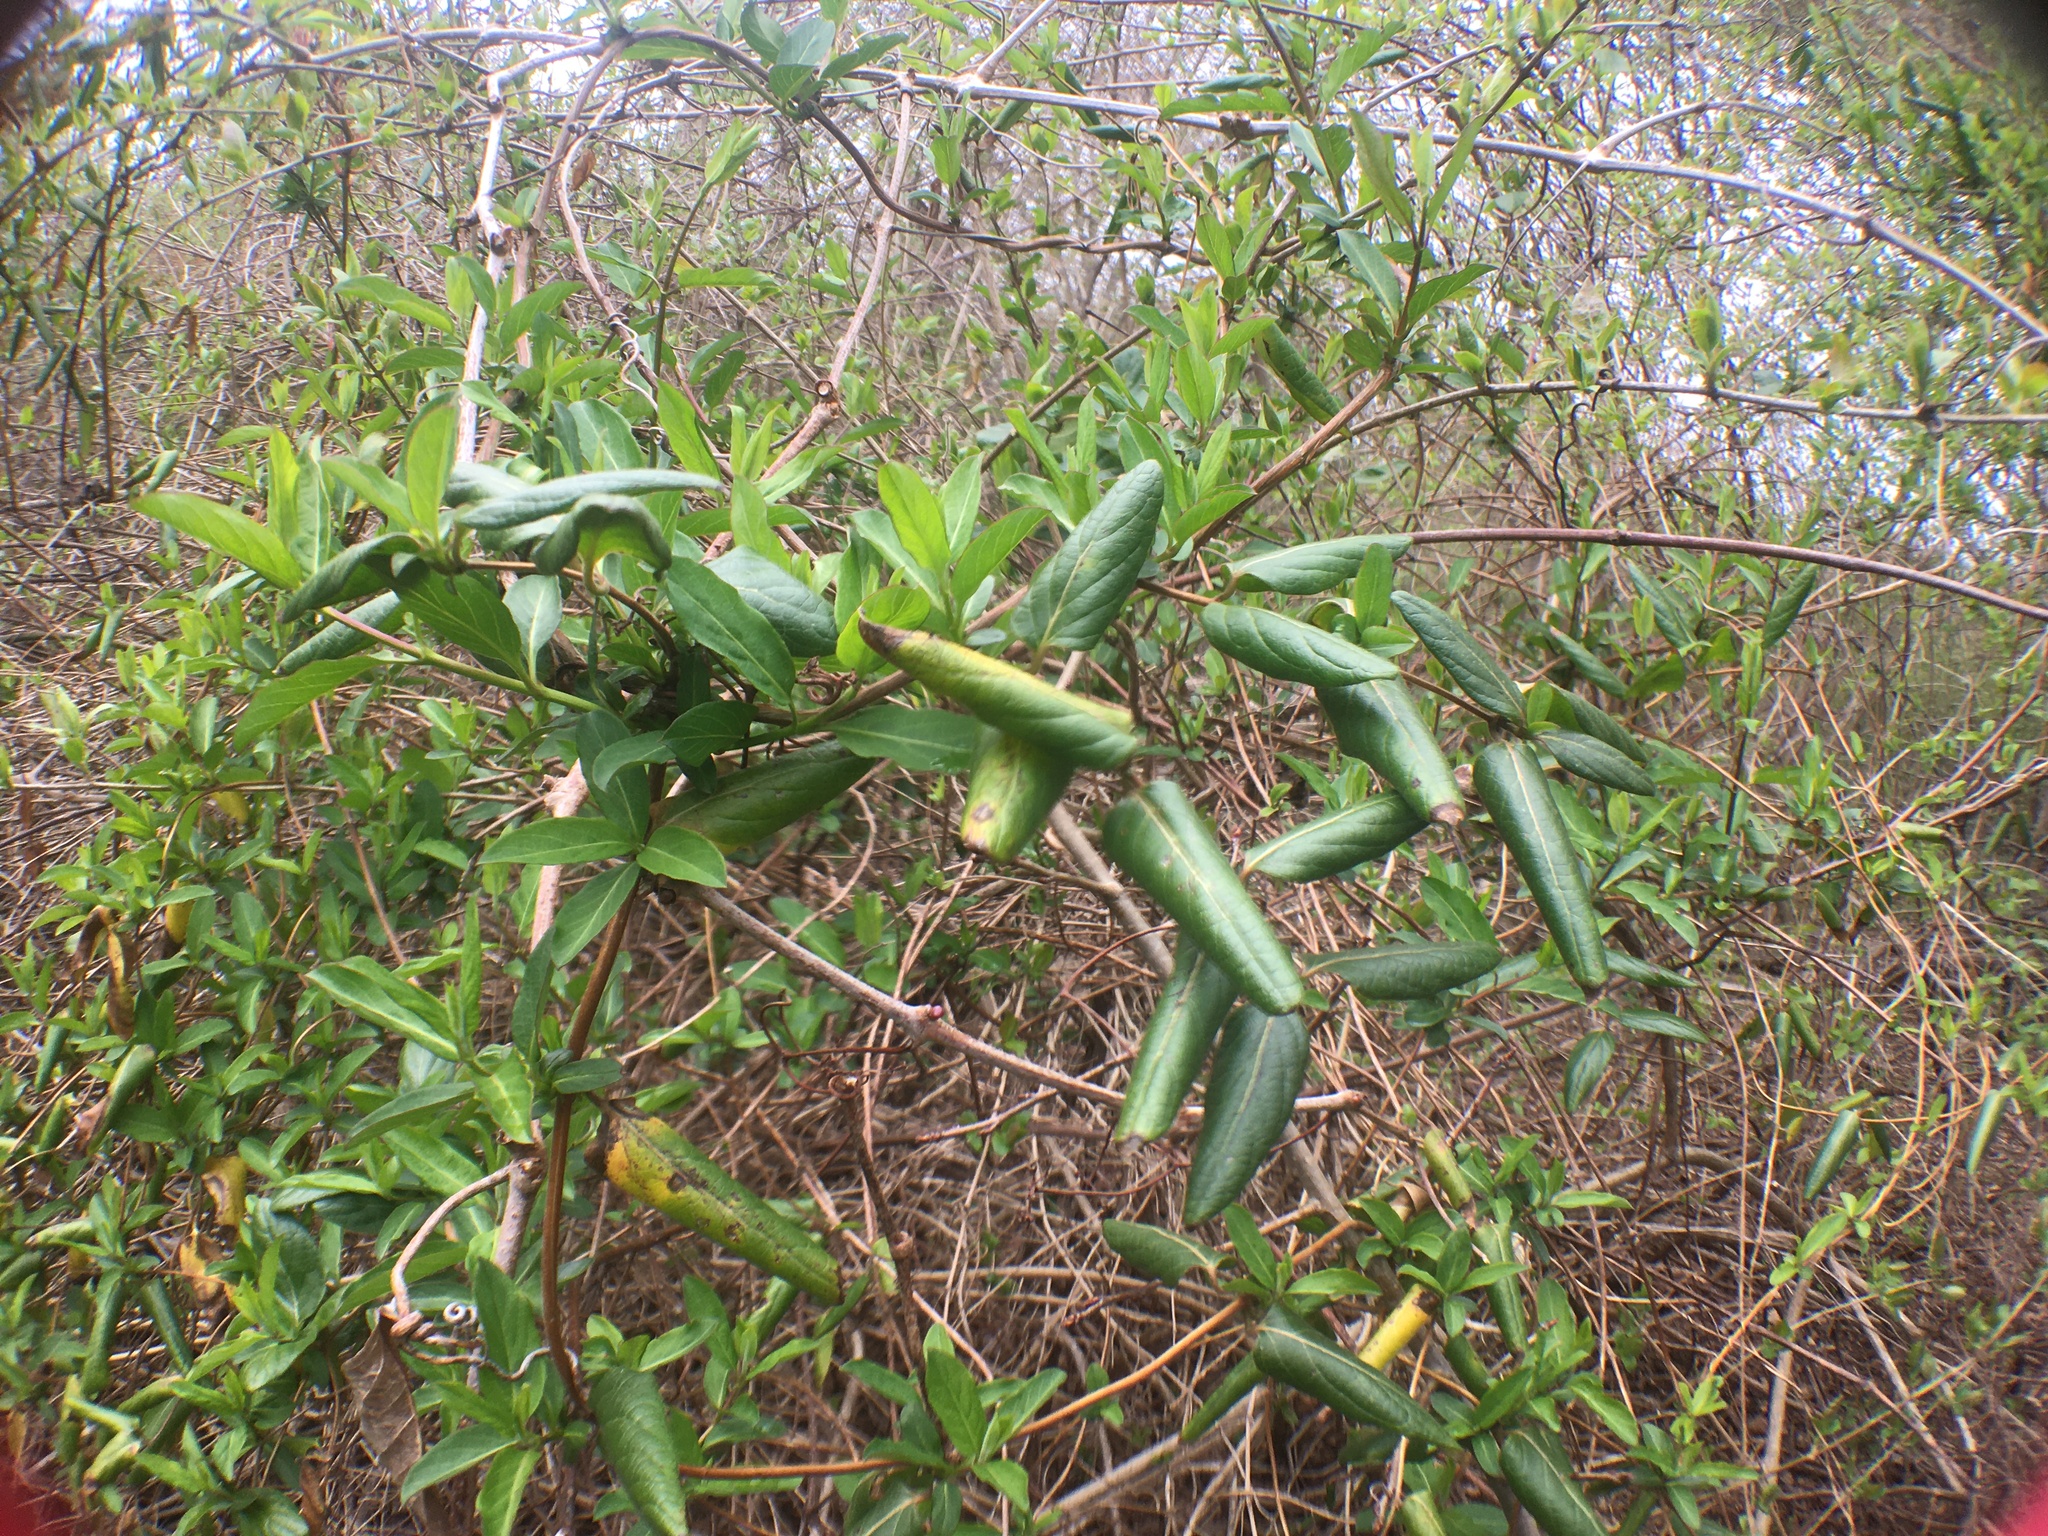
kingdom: Plantae
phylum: Tracheophyta
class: Magnoliopsida
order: Dipsacales
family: Caprifoliaceae
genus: Lonicera
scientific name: Lonicera japonica
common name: Japanese honeysuckle
